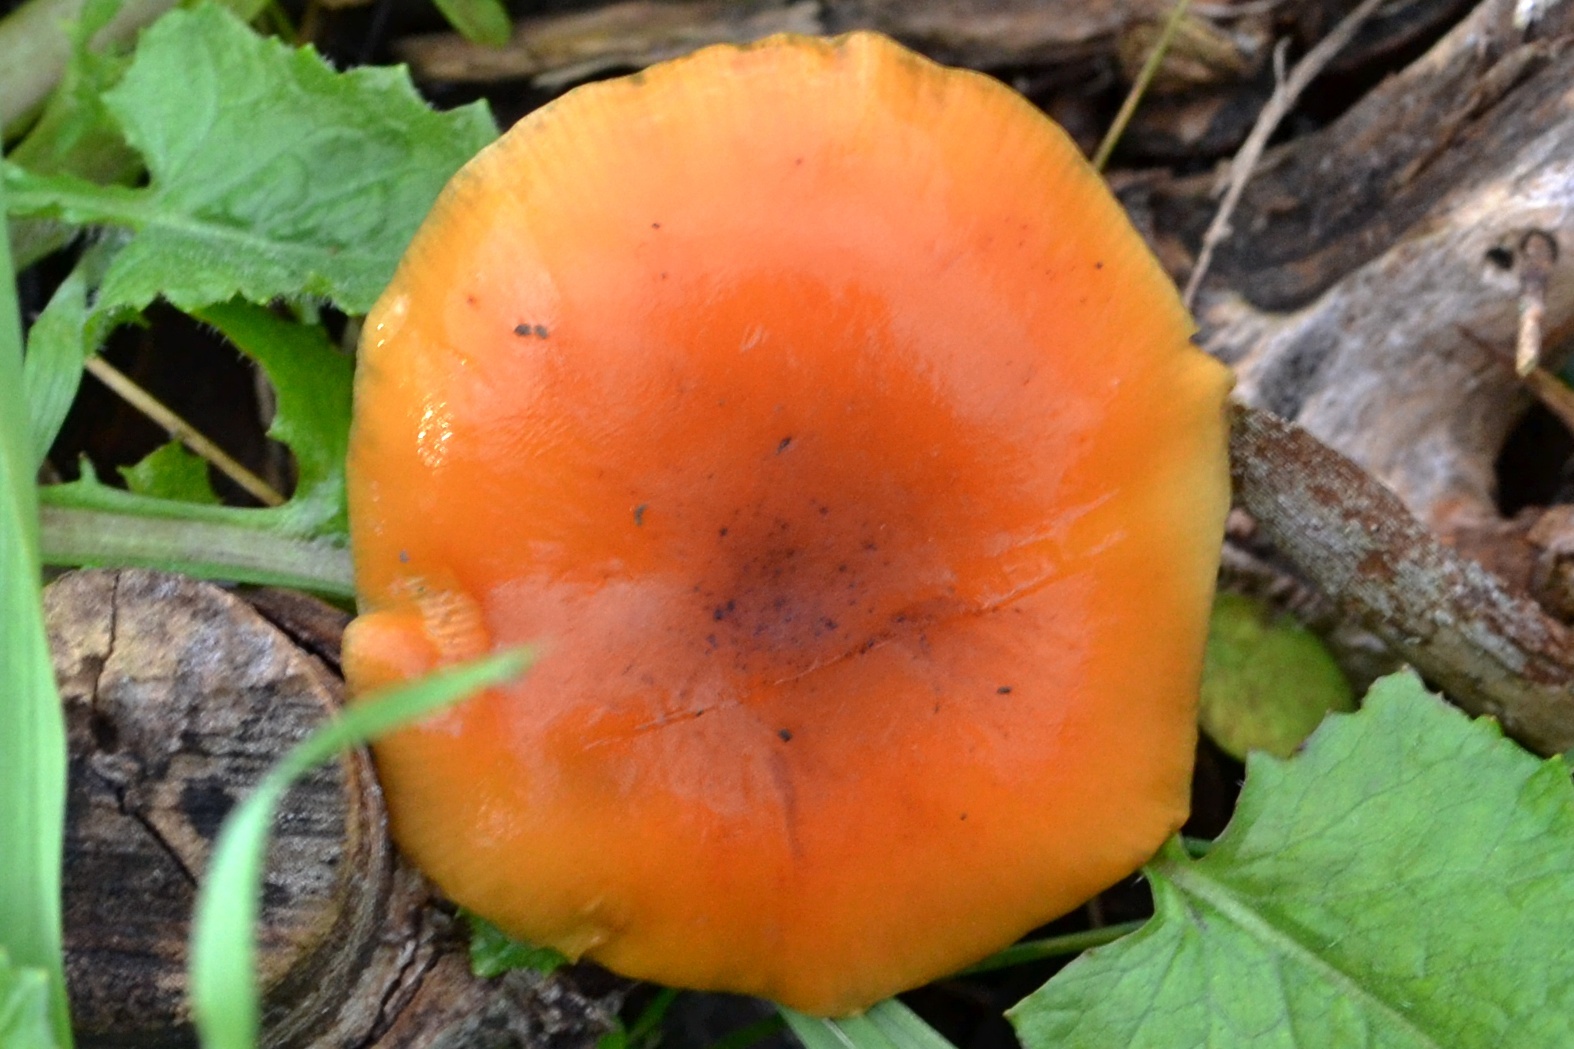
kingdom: Fungi
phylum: Basidiomycota
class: Agaricomycetes
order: Agaricales
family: Physalacriaceae
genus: Flammulina
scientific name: Flammulina
